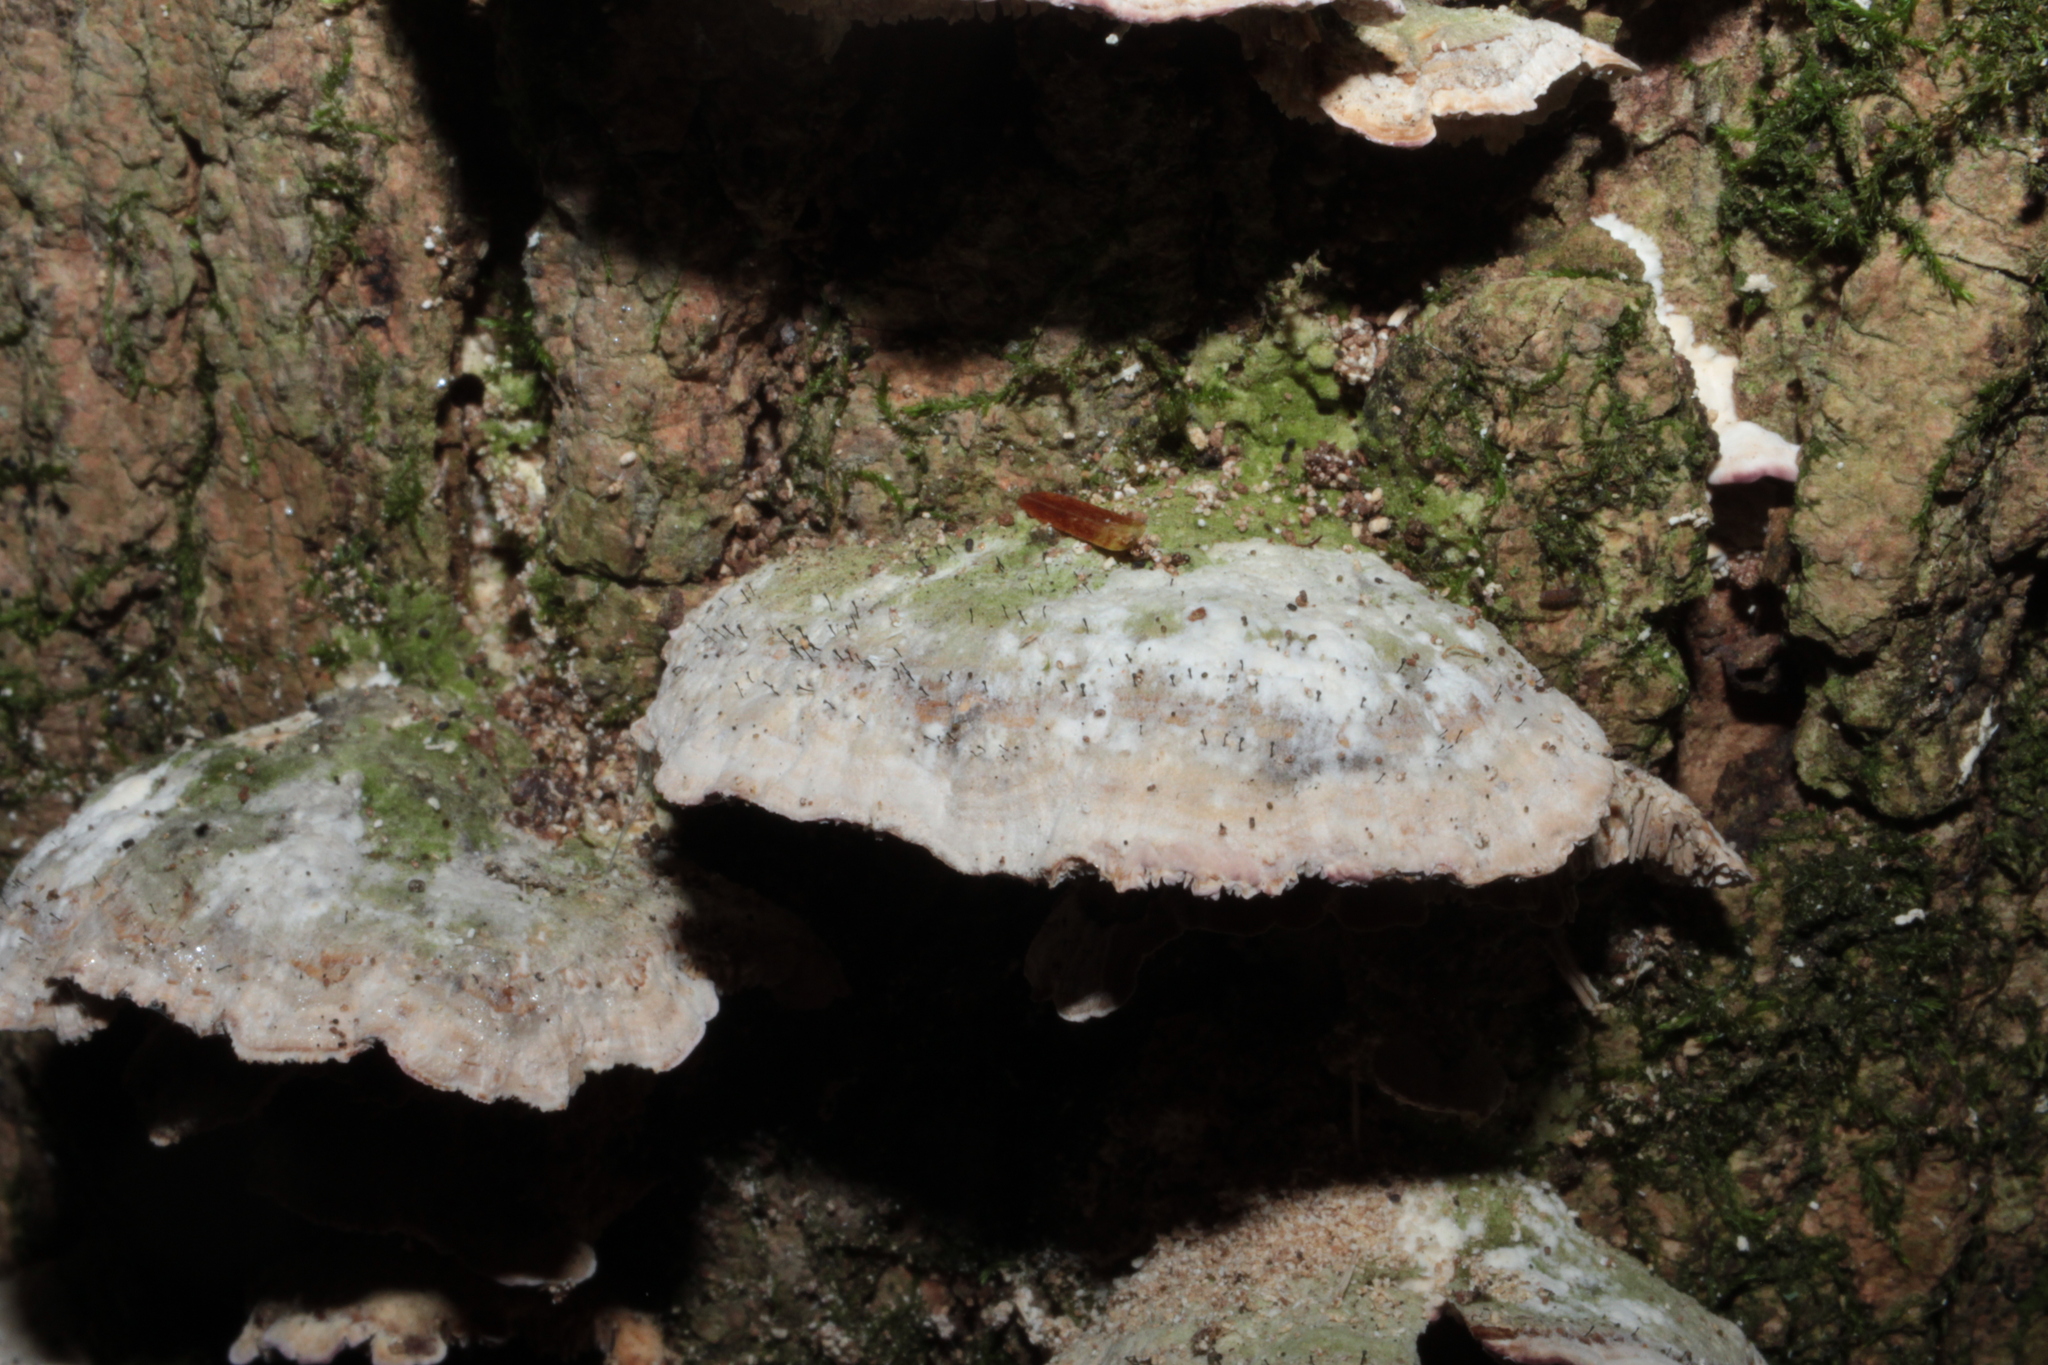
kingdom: Fungi
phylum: Ascomycota
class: Eurotiomycetes
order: Mycocaliciales
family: Mycocaliciaceae
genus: Phaeocalicium
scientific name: Phaeocalicium polyporaeum
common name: Fairy pins
